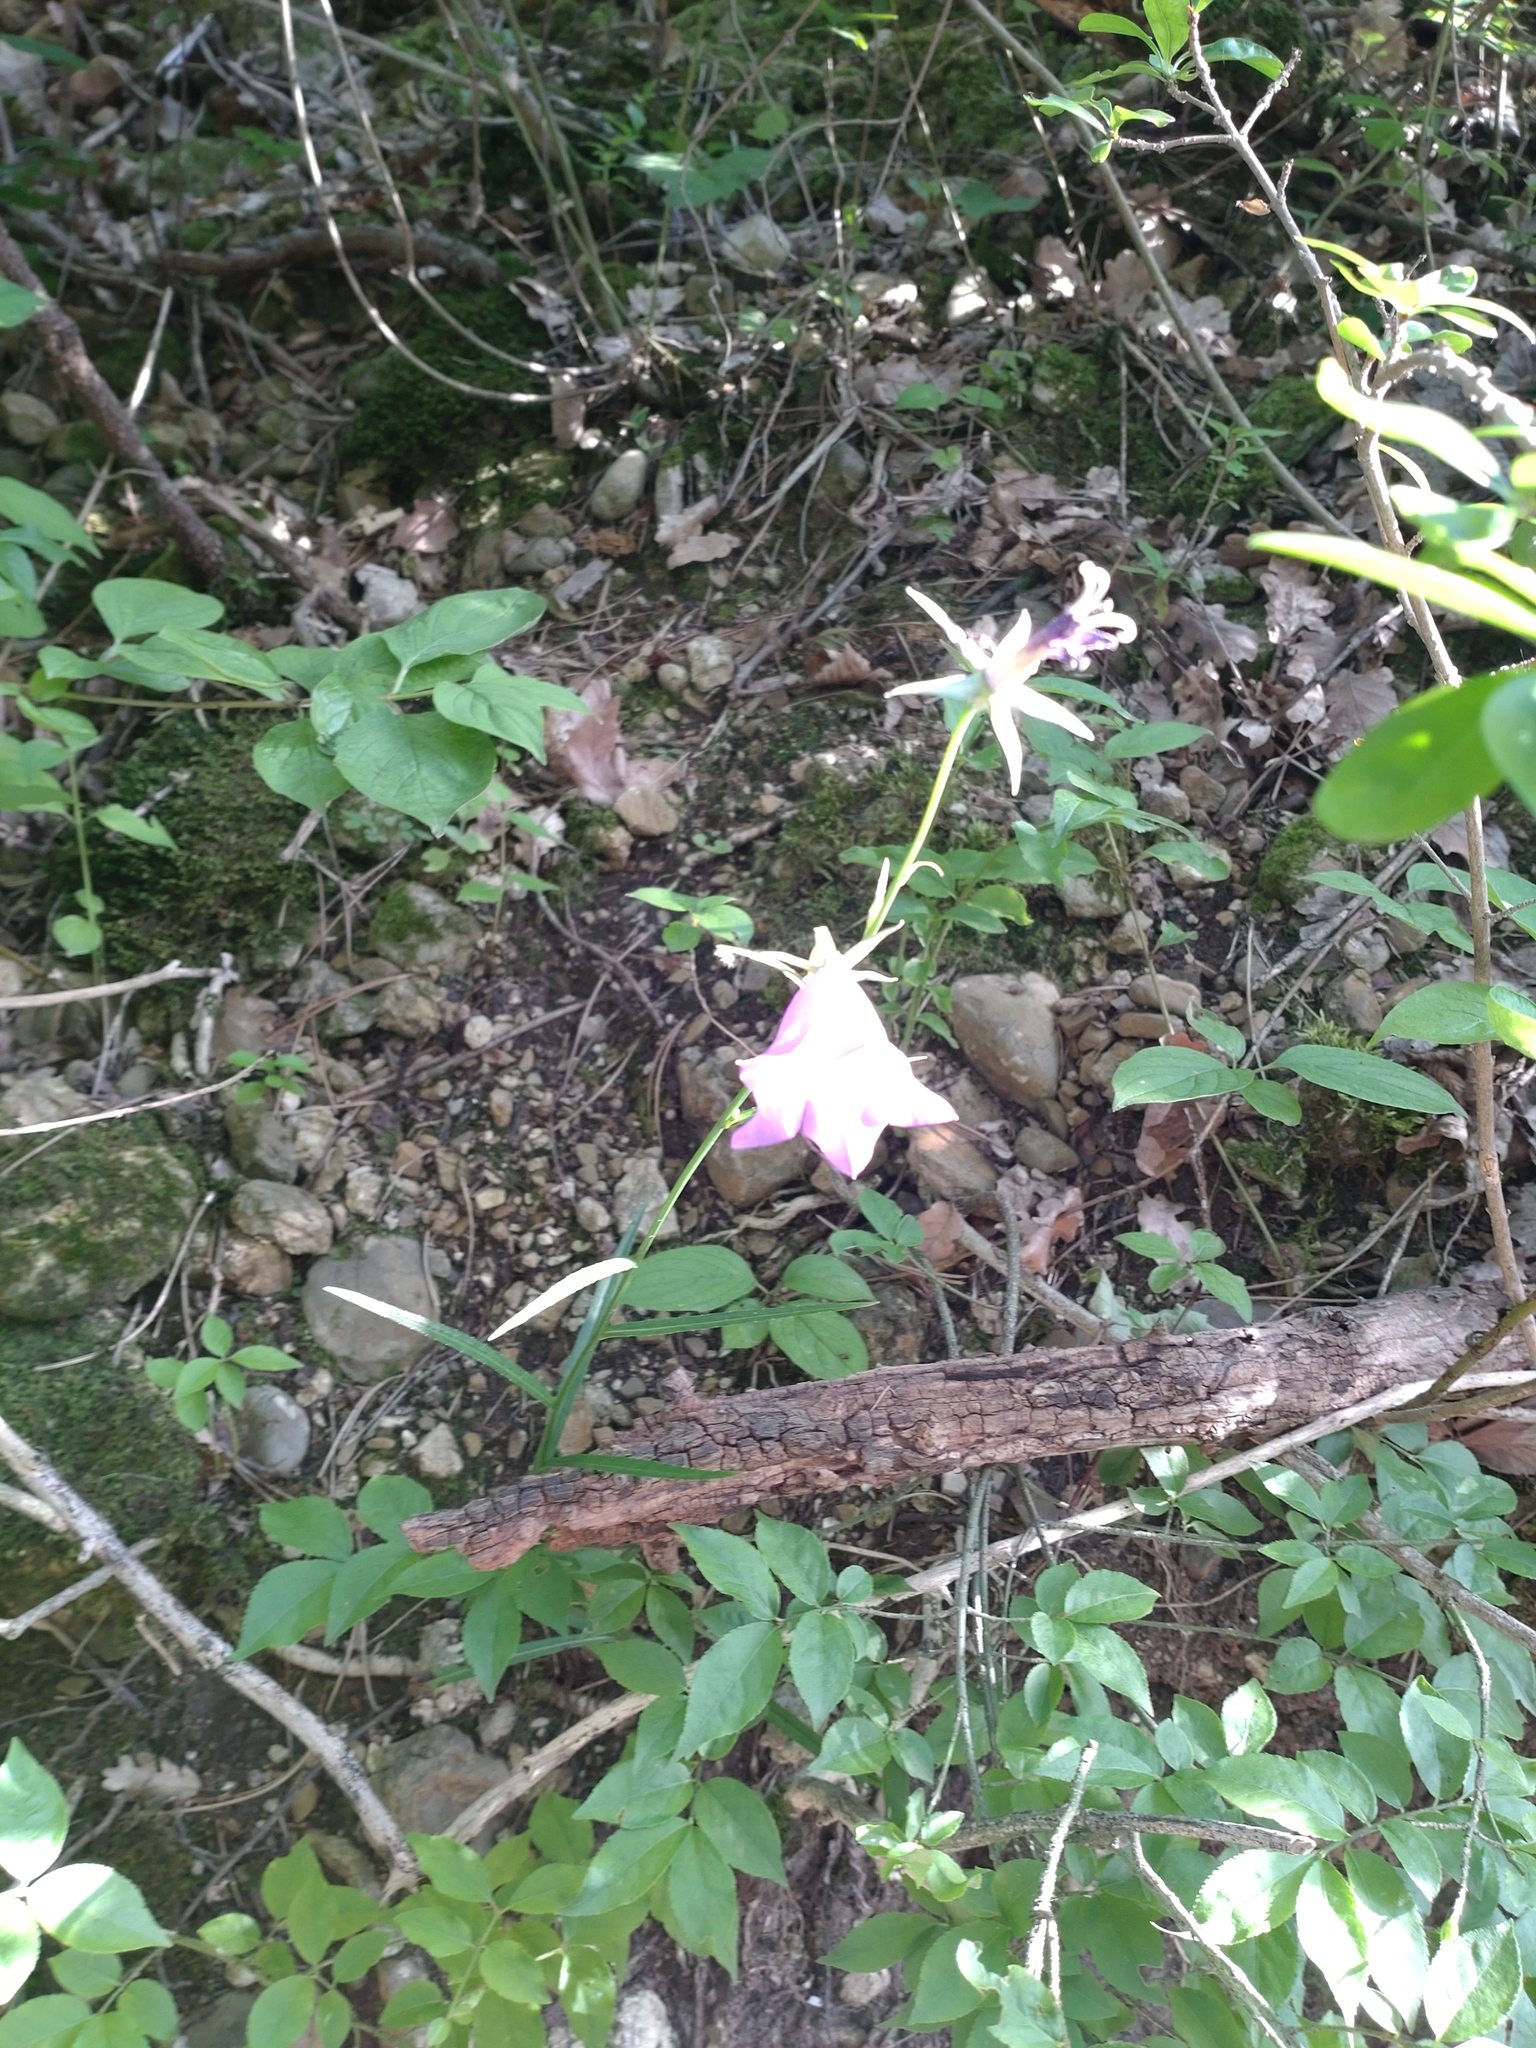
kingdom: Plantae
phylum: Tracheophyta
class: Magnoliopsida
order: Asterales
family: Campanulaceae
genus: Campanula
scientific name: Campanula persicifolia
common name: Peach-leaved bellflower
